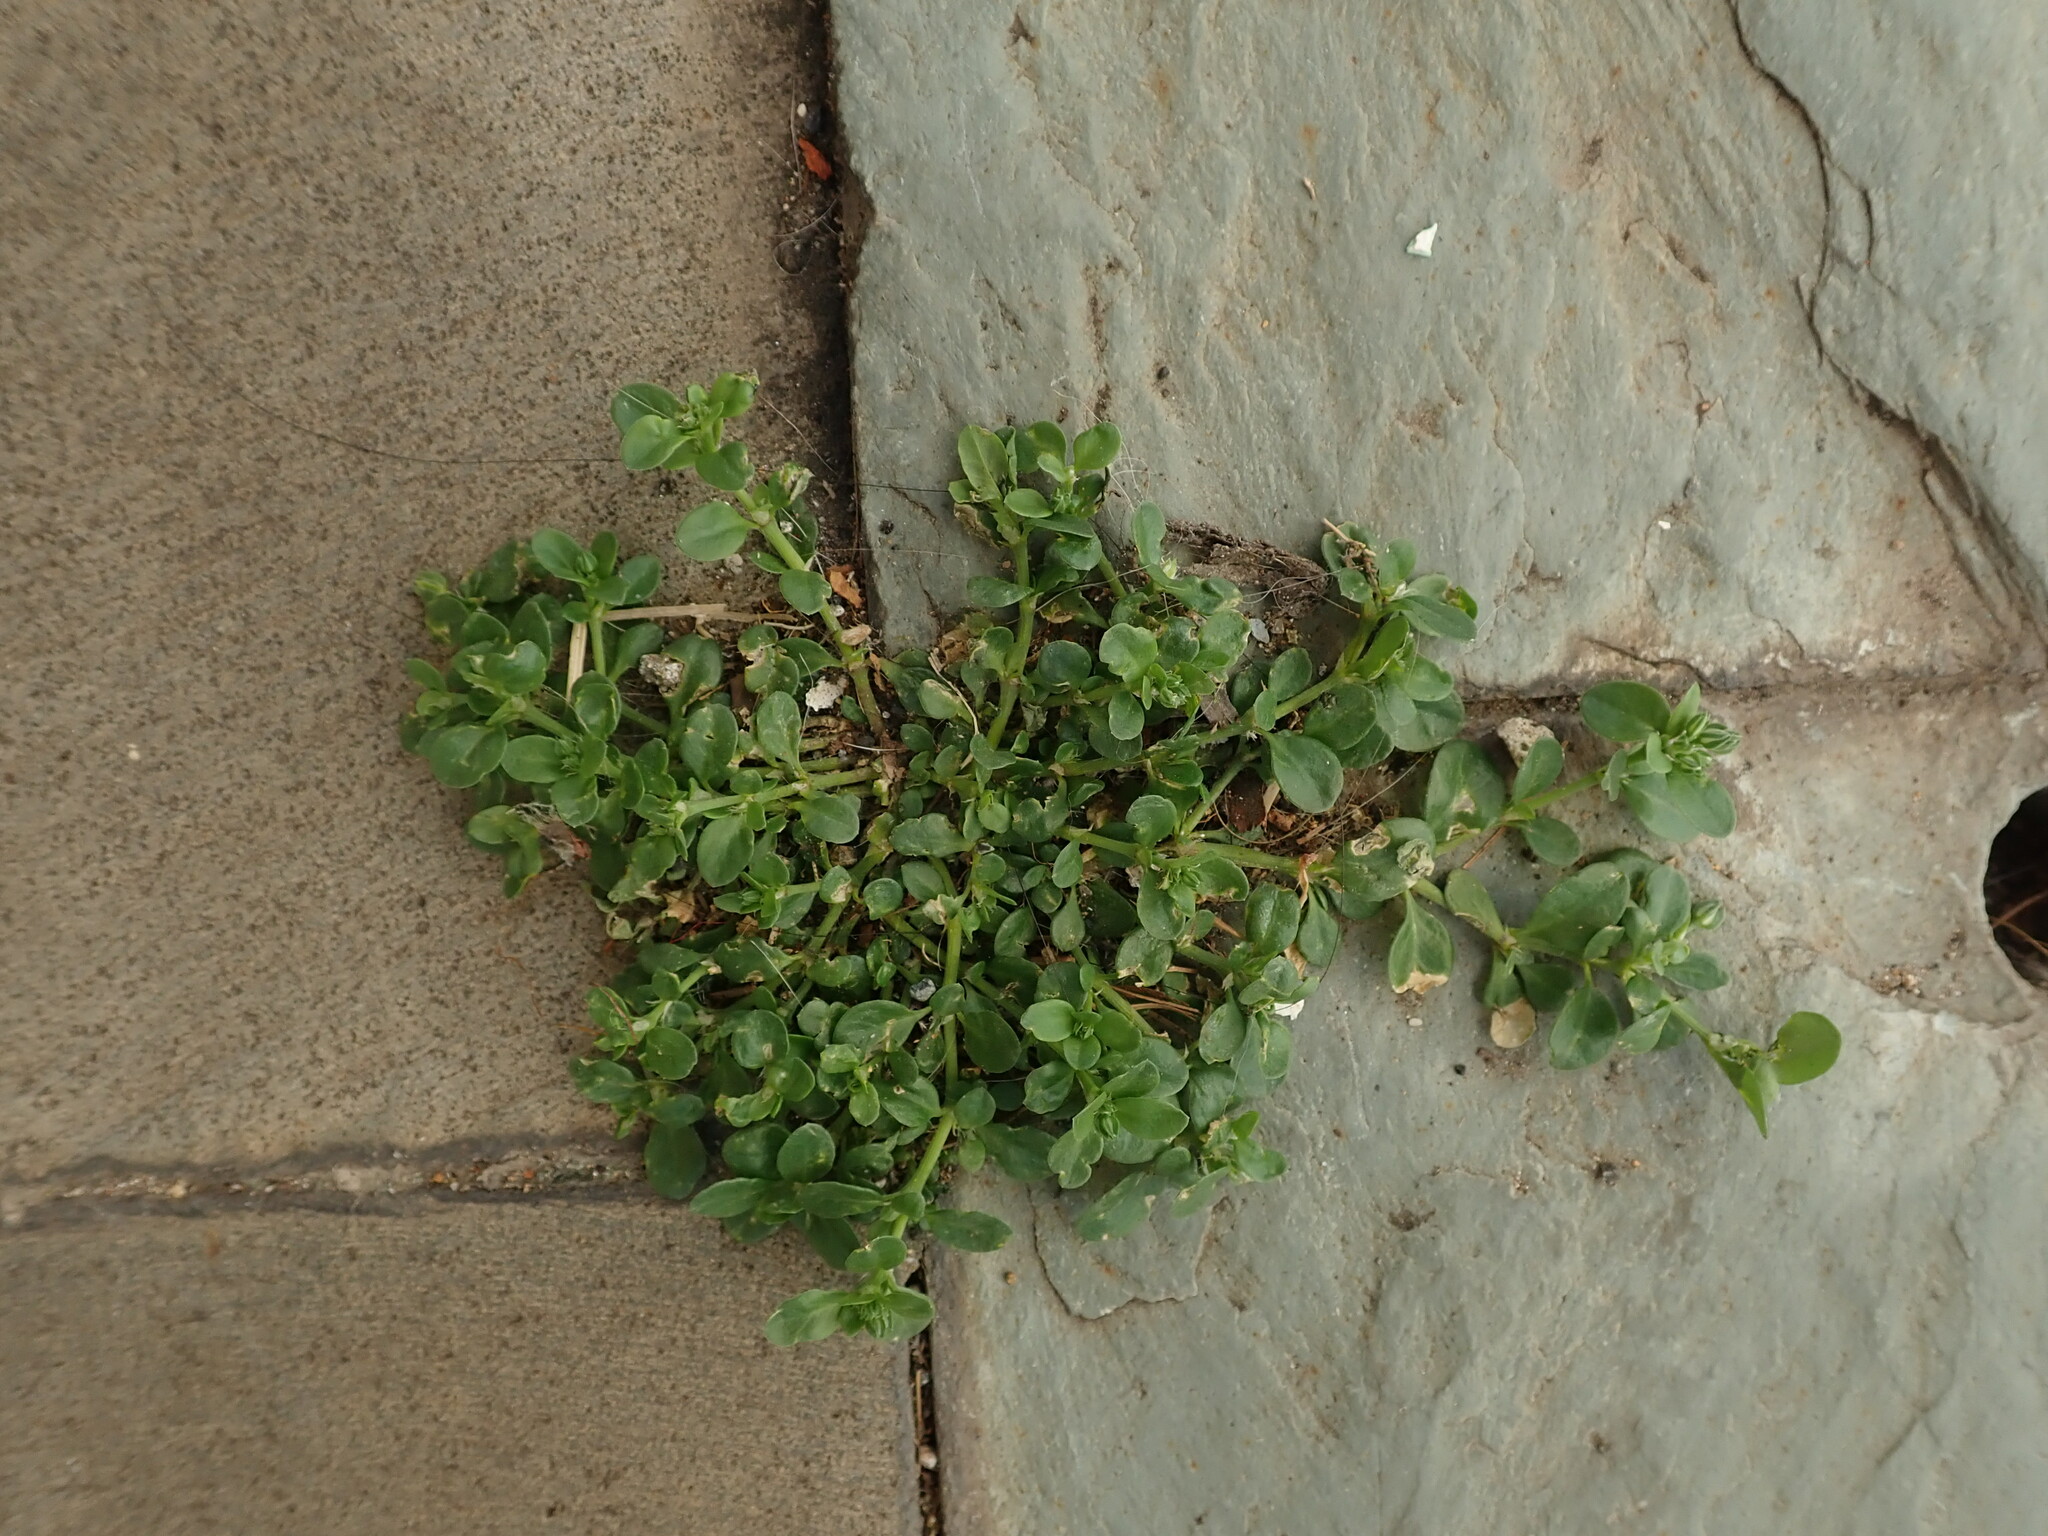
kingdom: Plantae
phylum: Tracheophyta
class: Magnoliopsida
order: Caryophyllales
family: Caryophyllaceae
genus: Polycarpon
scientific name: Polycarpon tetraphyllum
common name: Four-leaved all-seed
